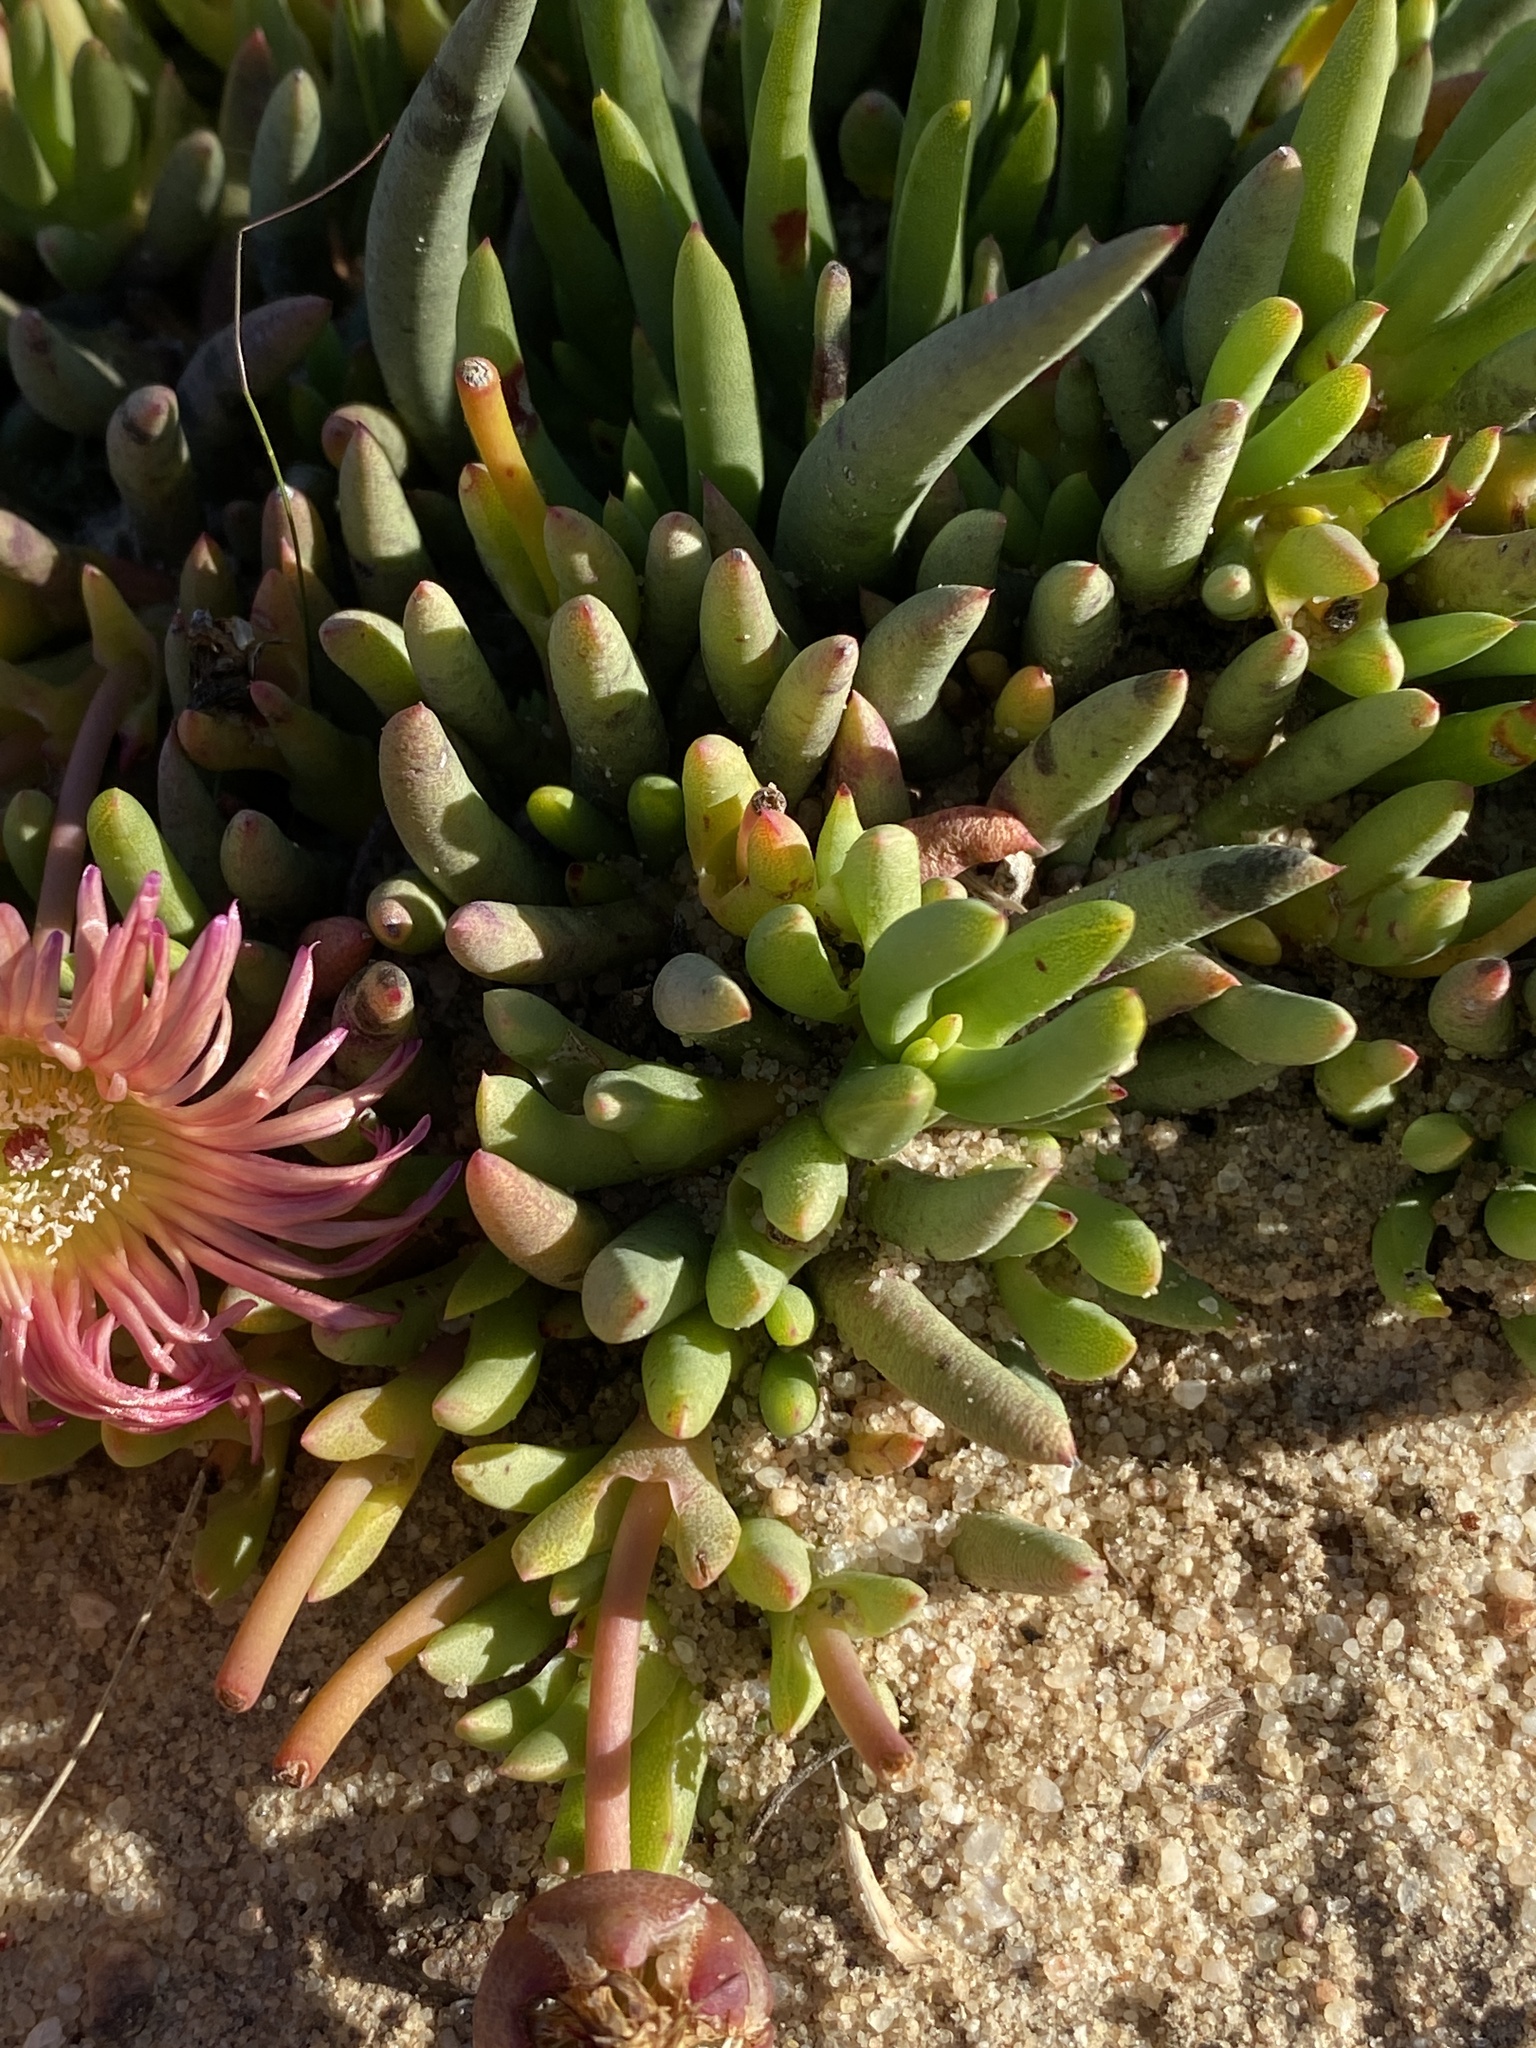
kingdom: Plantae
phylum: Tracheophyta
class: Magnoliopsida
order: Caryophyllales
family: Aizoaceae
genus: Cephalophyllum
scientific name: Cephalophyllum loreum
